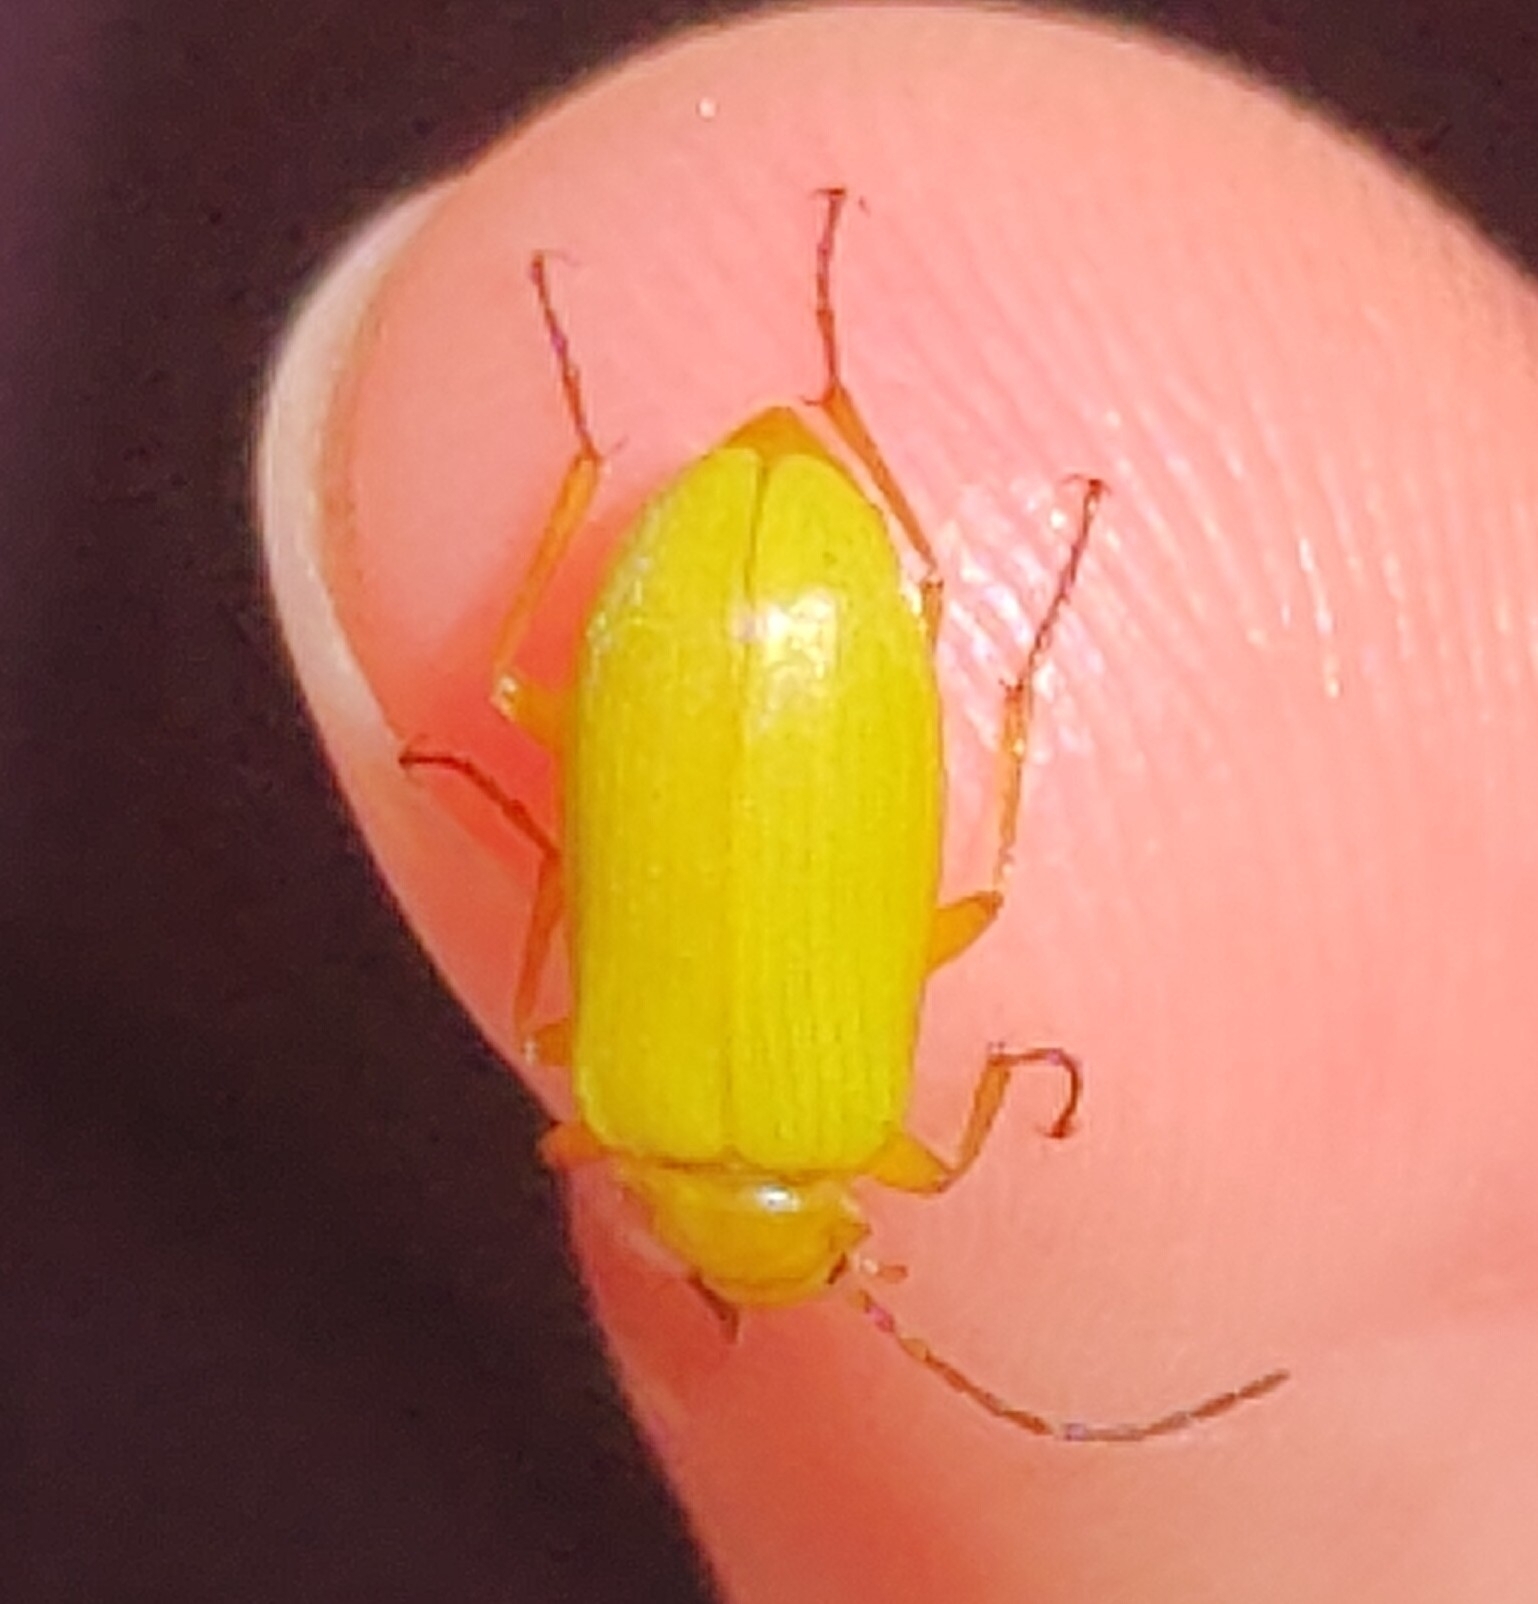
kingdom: Animalia
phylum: Arthropoda
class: Insecta
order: Coleoptera
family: Tenebrionidae
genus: Cteniopus
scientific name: Cteniopus sulphureus
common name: Sulphur beetle
